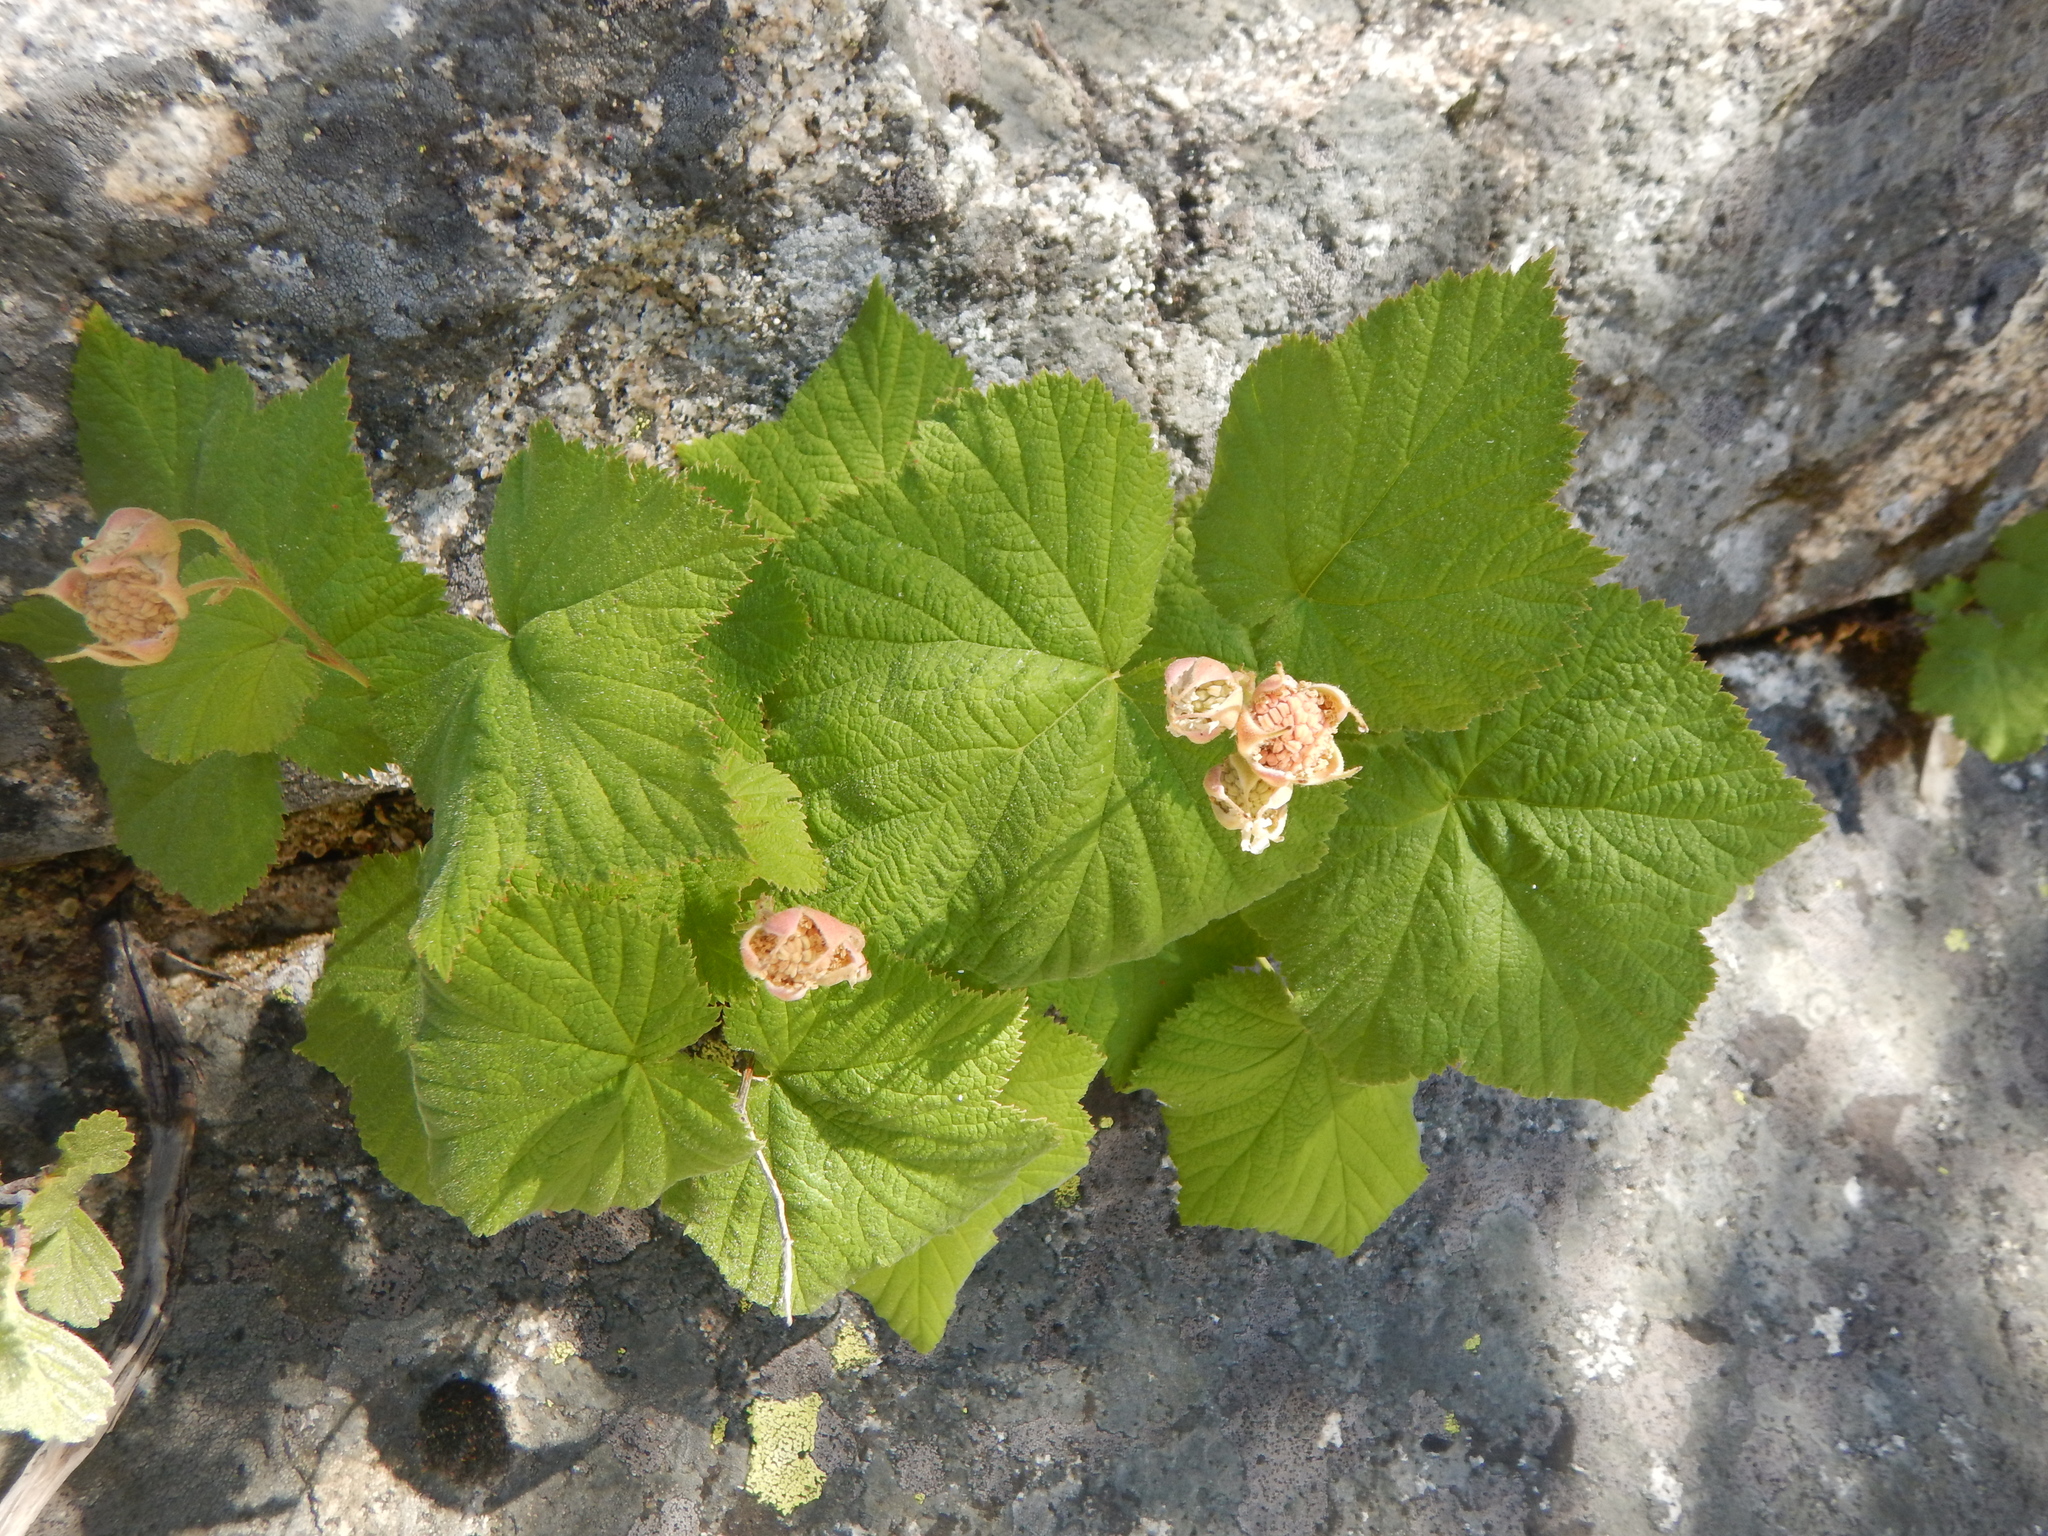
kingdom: Plantae
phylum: Tracheophyta
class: Magnoliopsida
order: Rosales
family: Rosaceae
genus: Rubus
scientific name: Rubus parviflorus
